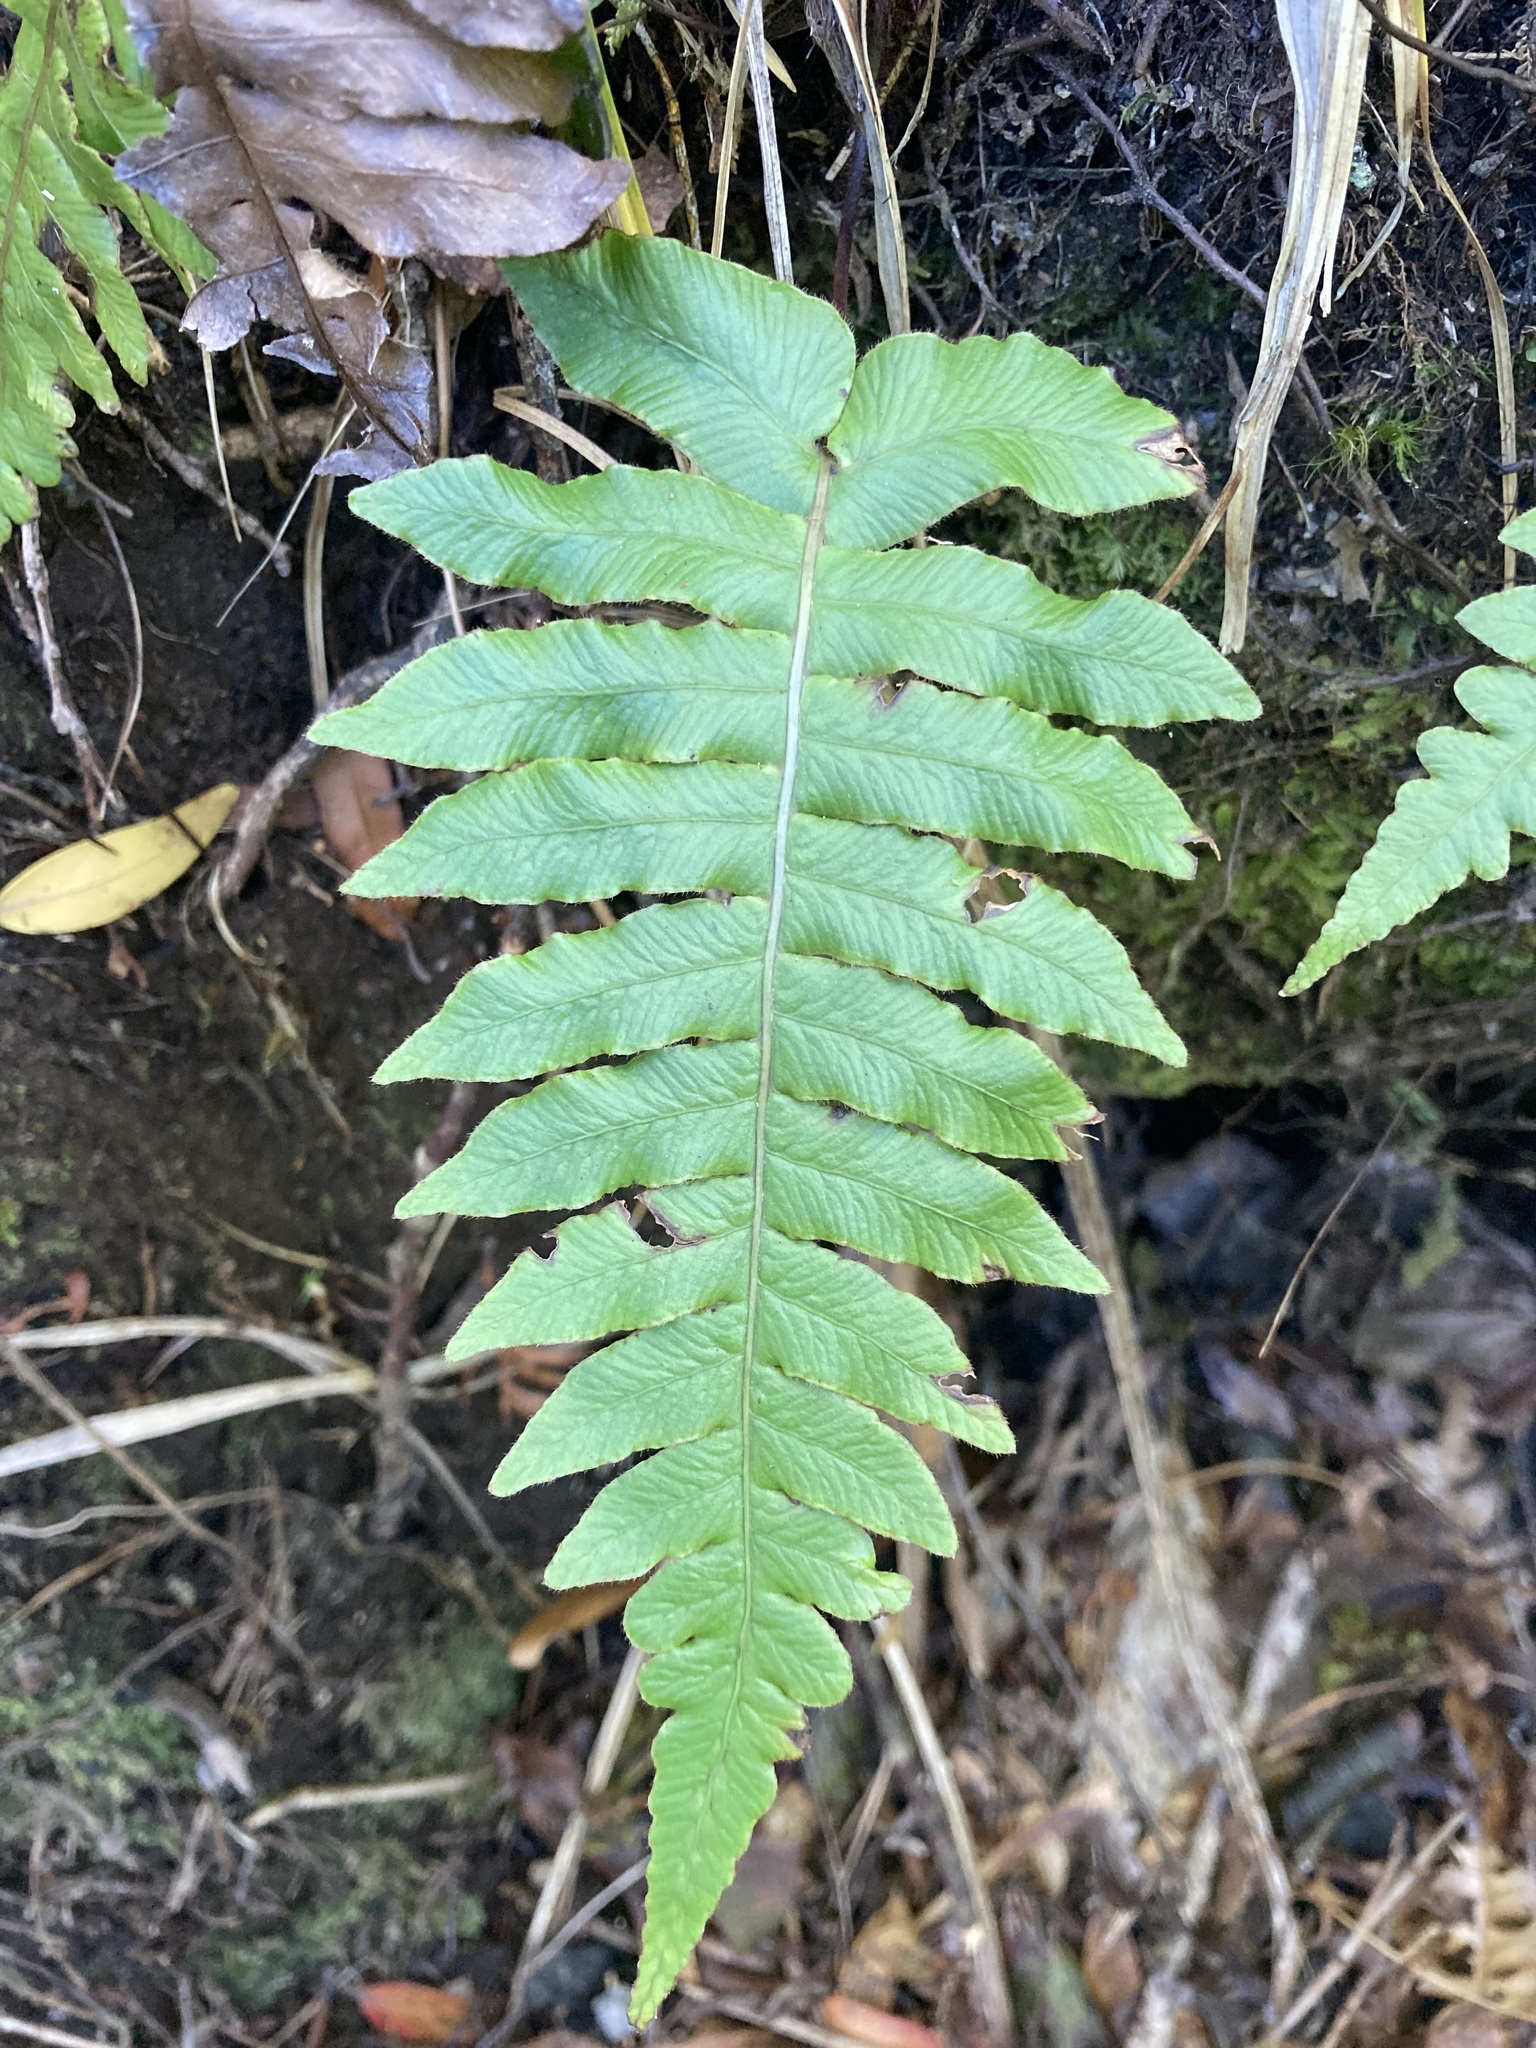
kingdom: Plantae
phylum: Tracheophyta
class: Polypodiopsida
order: Polypodiales
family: Blechnaceae
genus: Cranfillia
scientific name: Cranfillia deltoides
